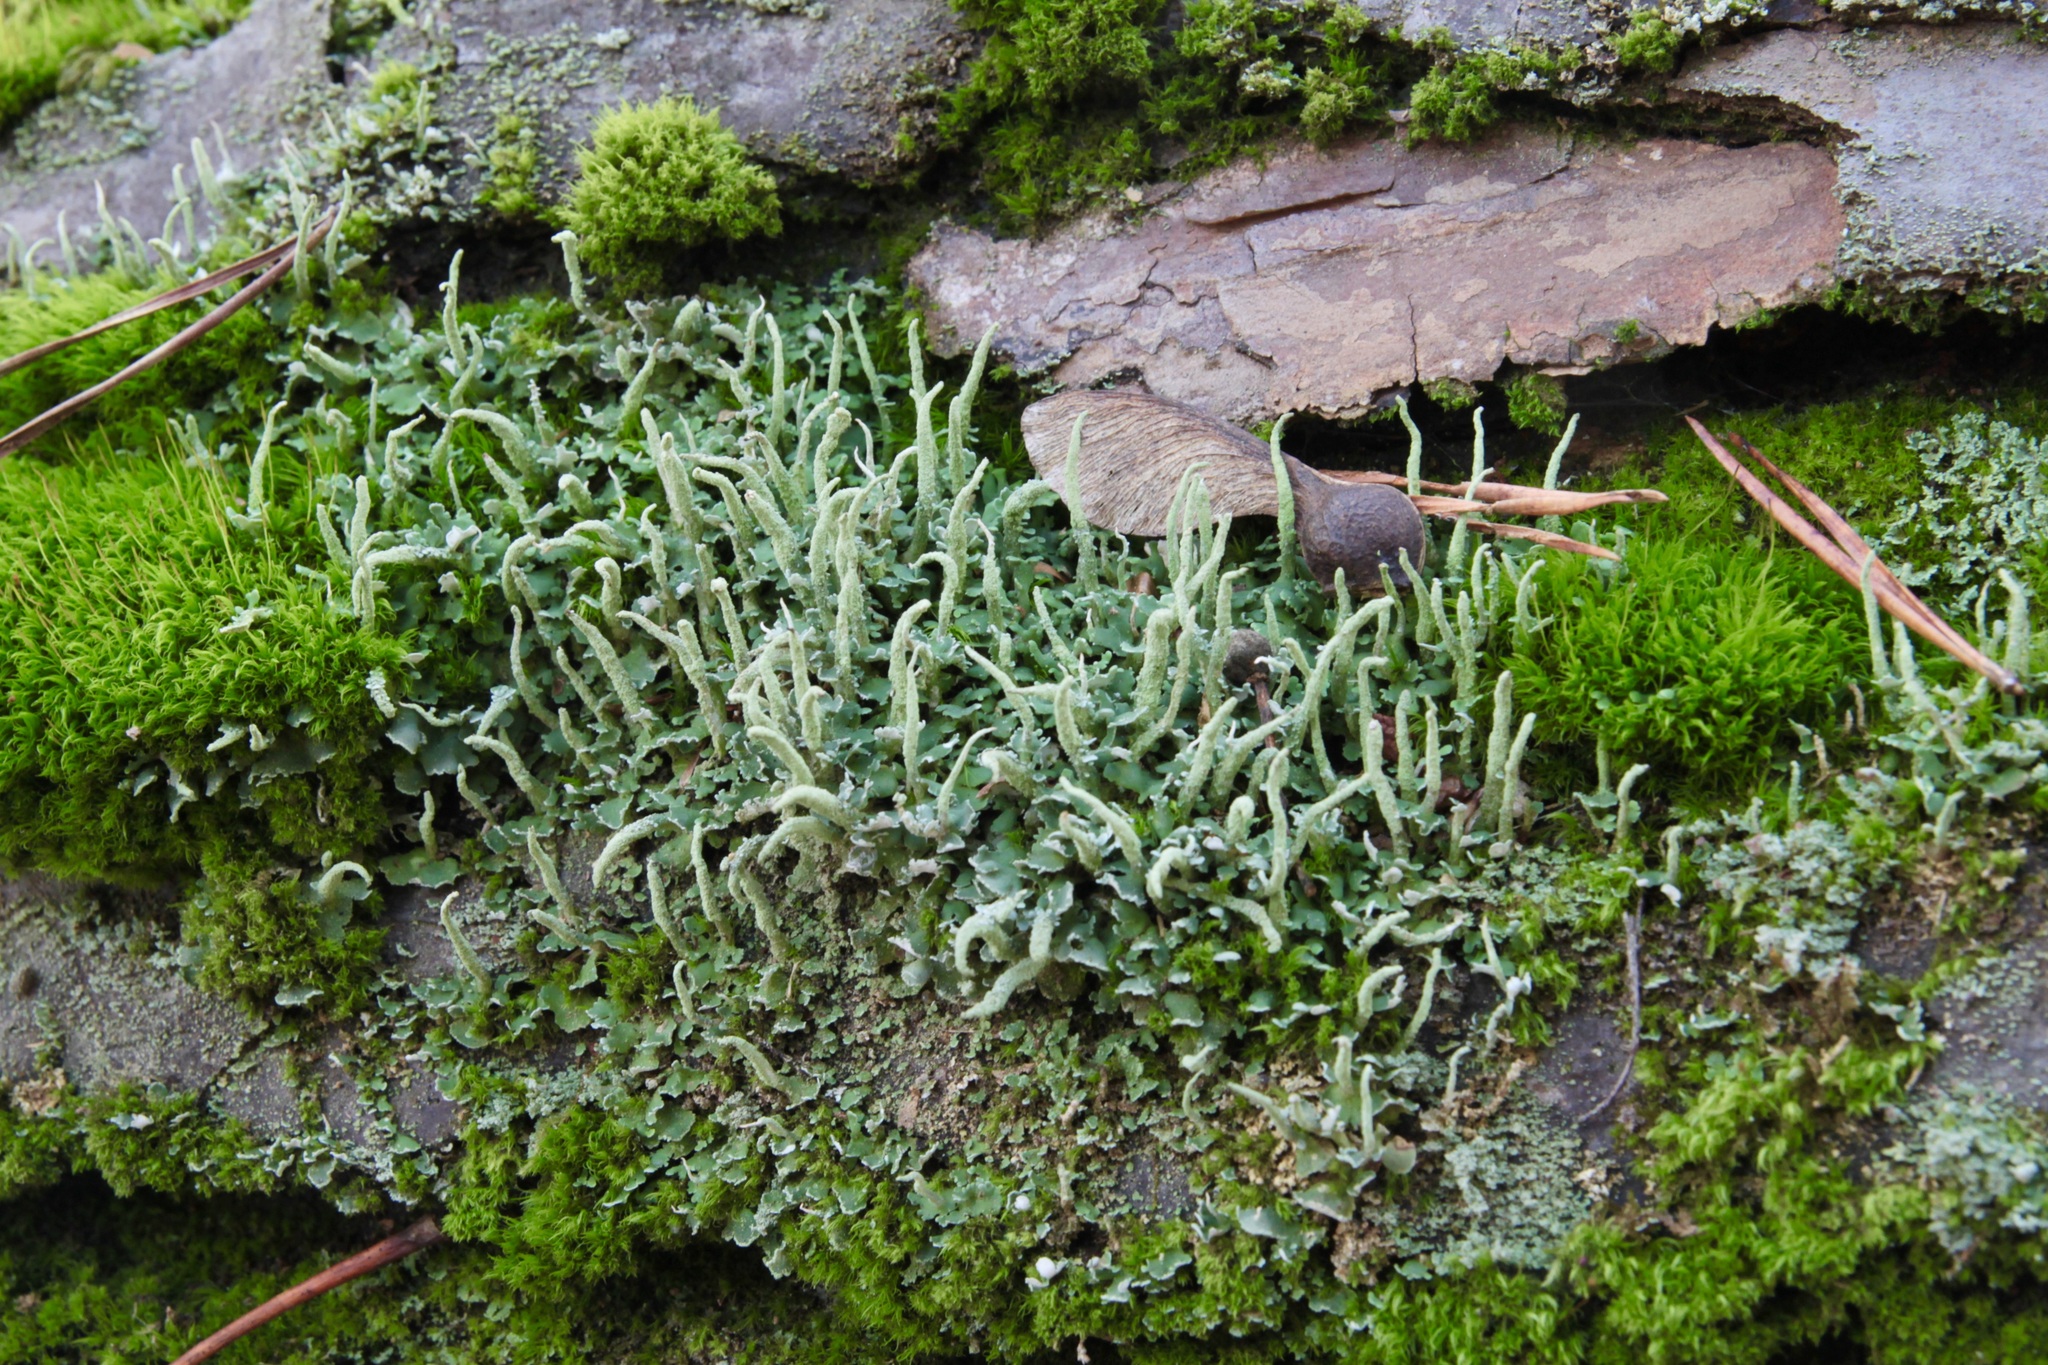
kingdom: Fungi
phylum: Ascomycota
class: Lecanoromycetes
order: Lecanorales
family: Cladoniaceae
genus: Cladonia
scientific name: Cladonia coniocraea
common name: Common powderhorn
